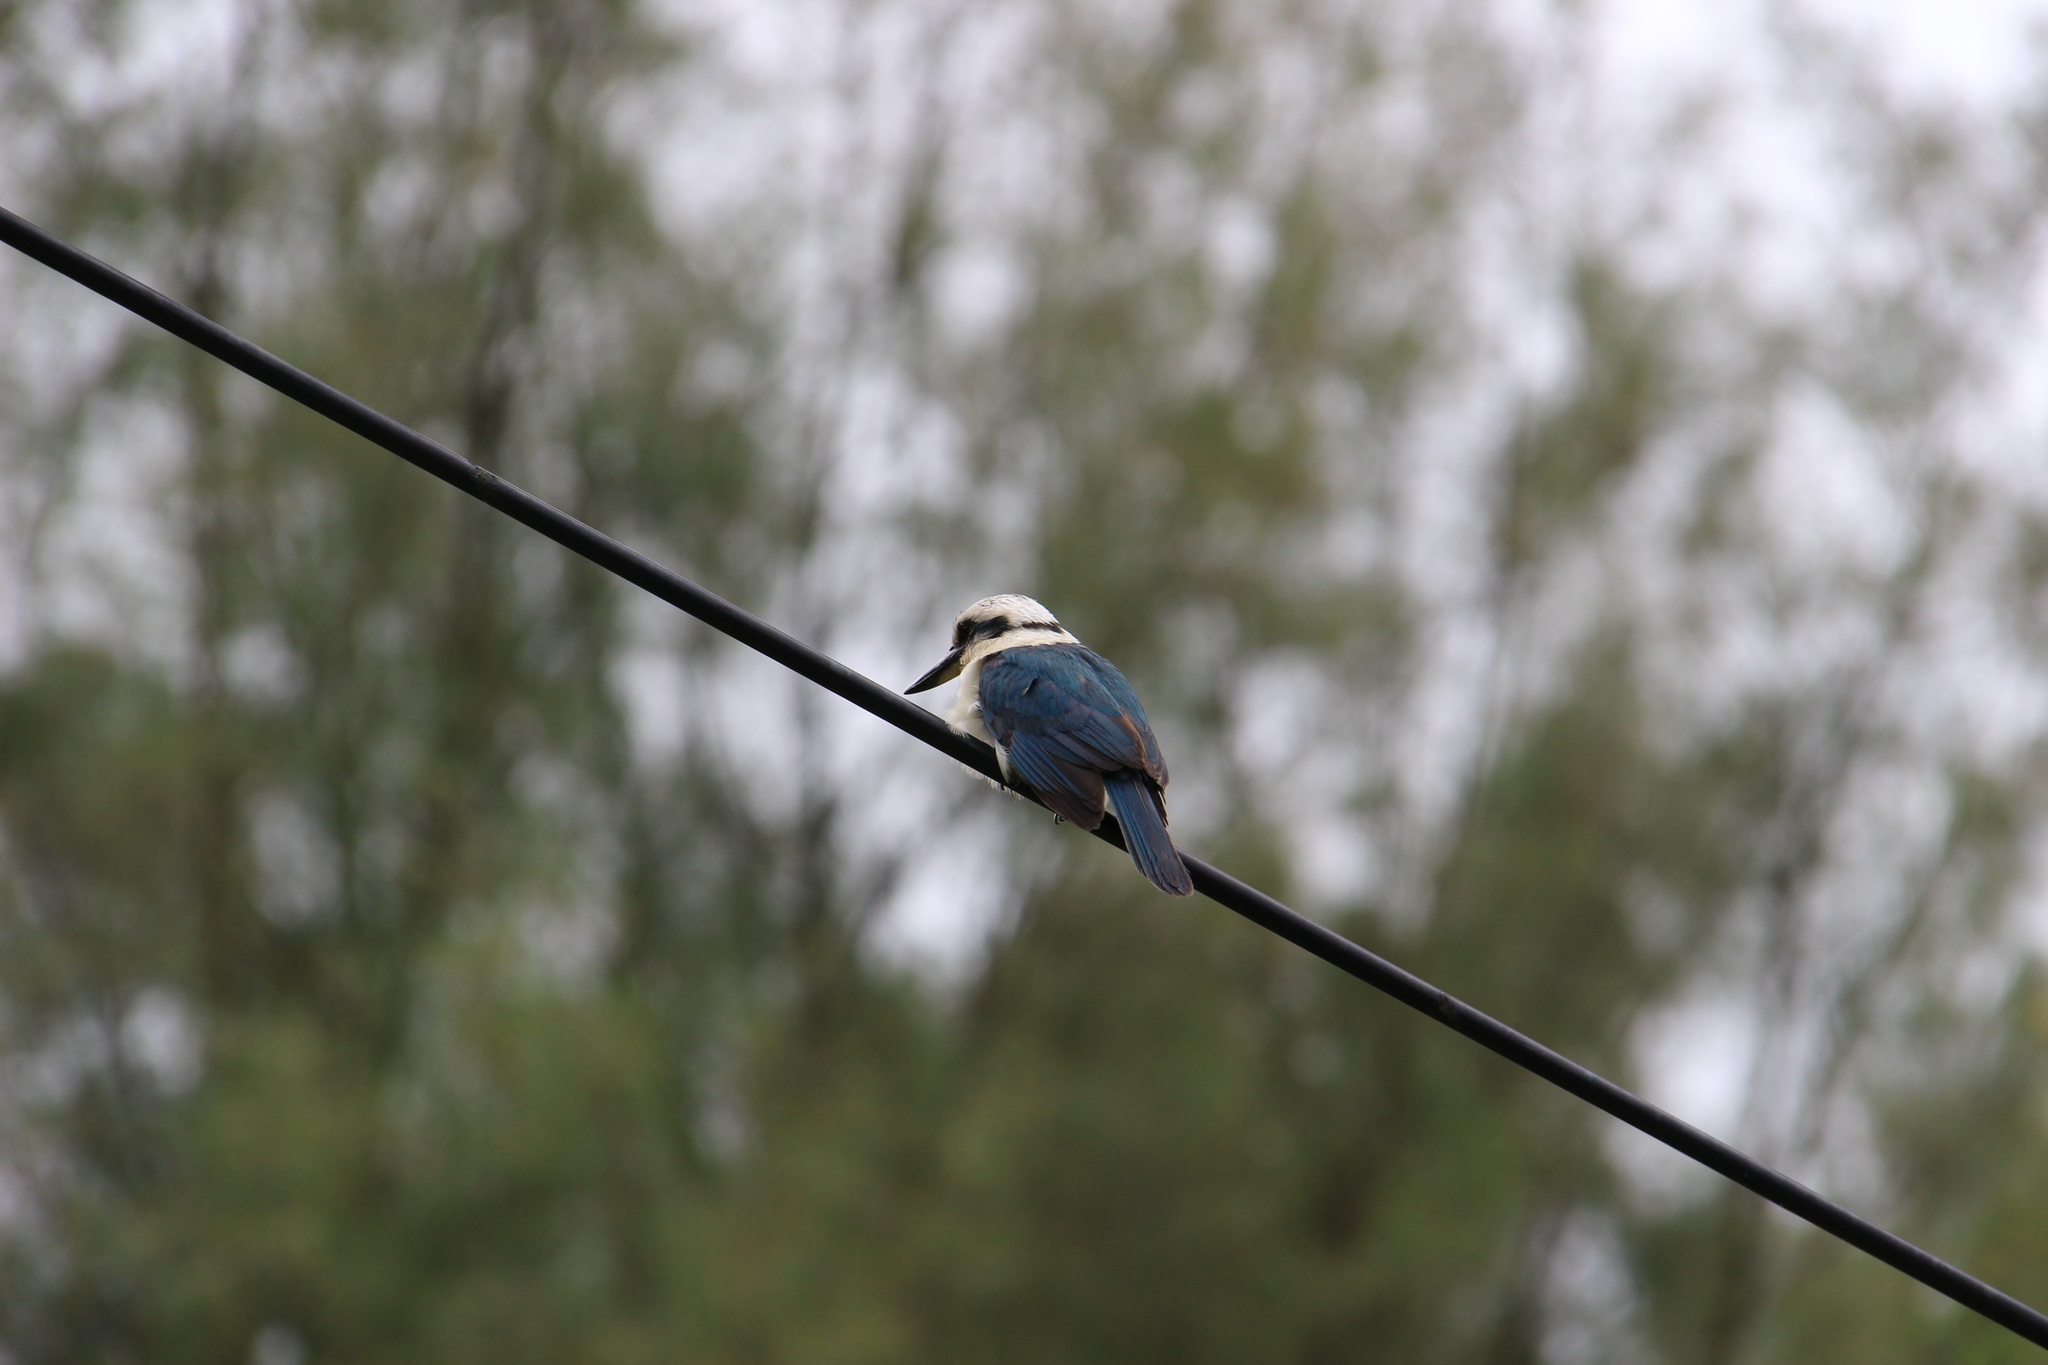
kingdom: Animalia
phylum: Chordata
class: Aves
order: Coraciiformes
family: Alcedinidae
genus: Todiramphus
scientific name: Todiramphus tutus
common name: Chattering kingfisher
